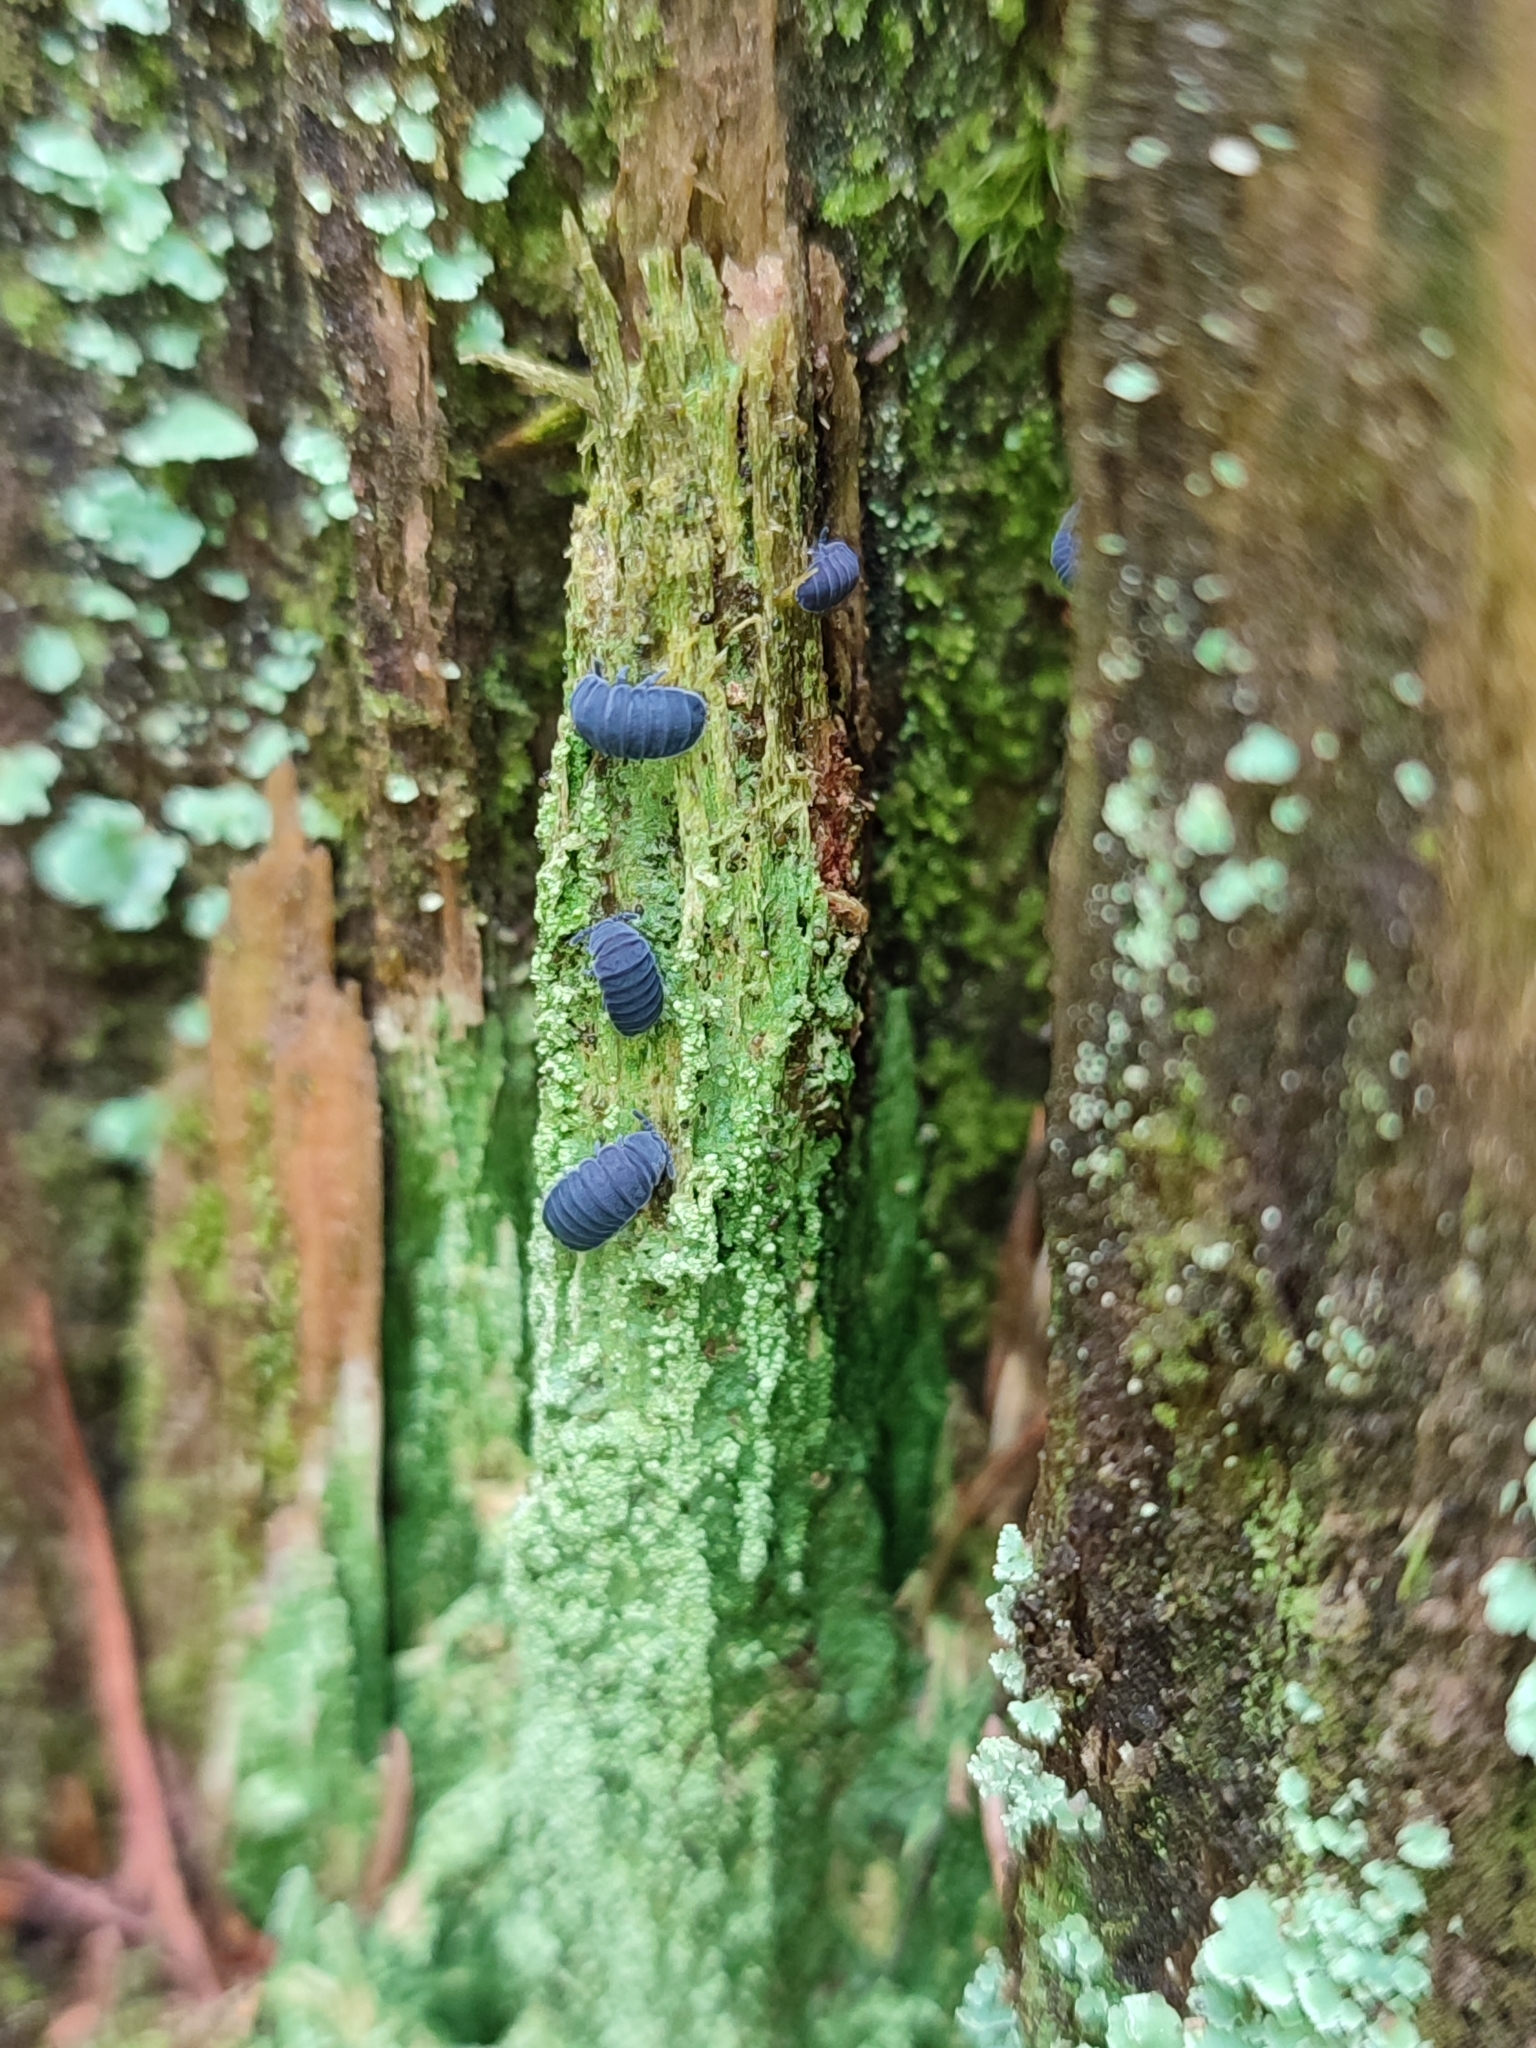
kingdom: Animalia
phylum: Arthropoda
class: Collembola
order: Poduromorpha
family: Onychiuridae
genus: Tetrodontophora
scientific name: Tetrodontophora bielanensis
